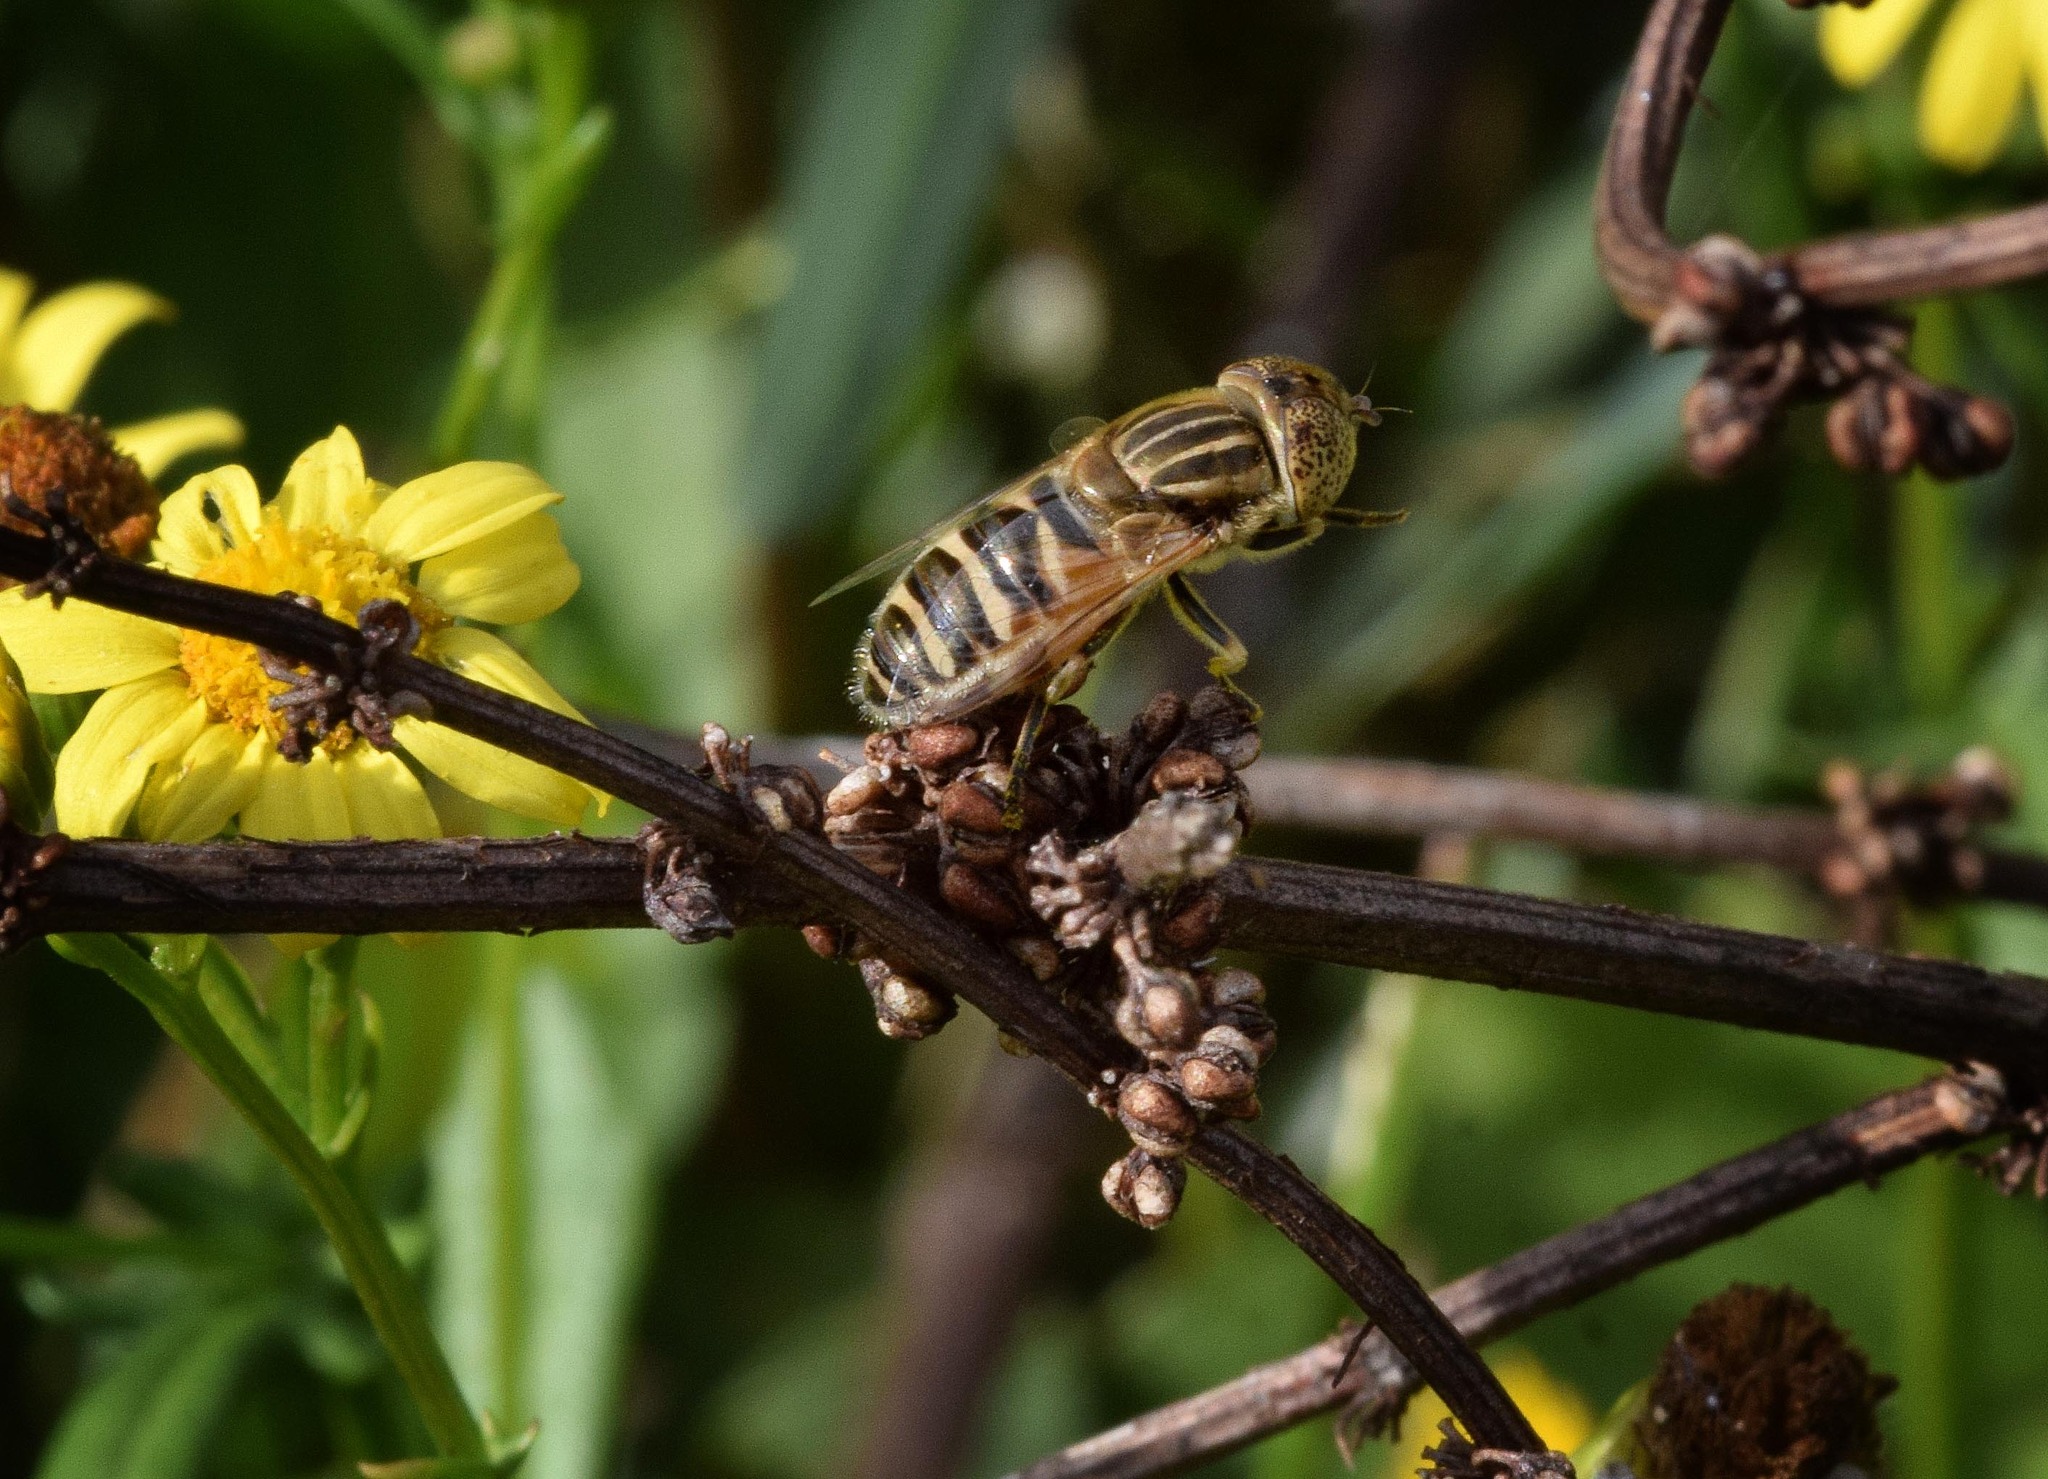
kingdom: Animalia
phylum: Arthropoda
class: Insecta
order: Diptera
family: Syrphidae
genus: Eristalinus
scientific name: Eristalinus megacephalus
